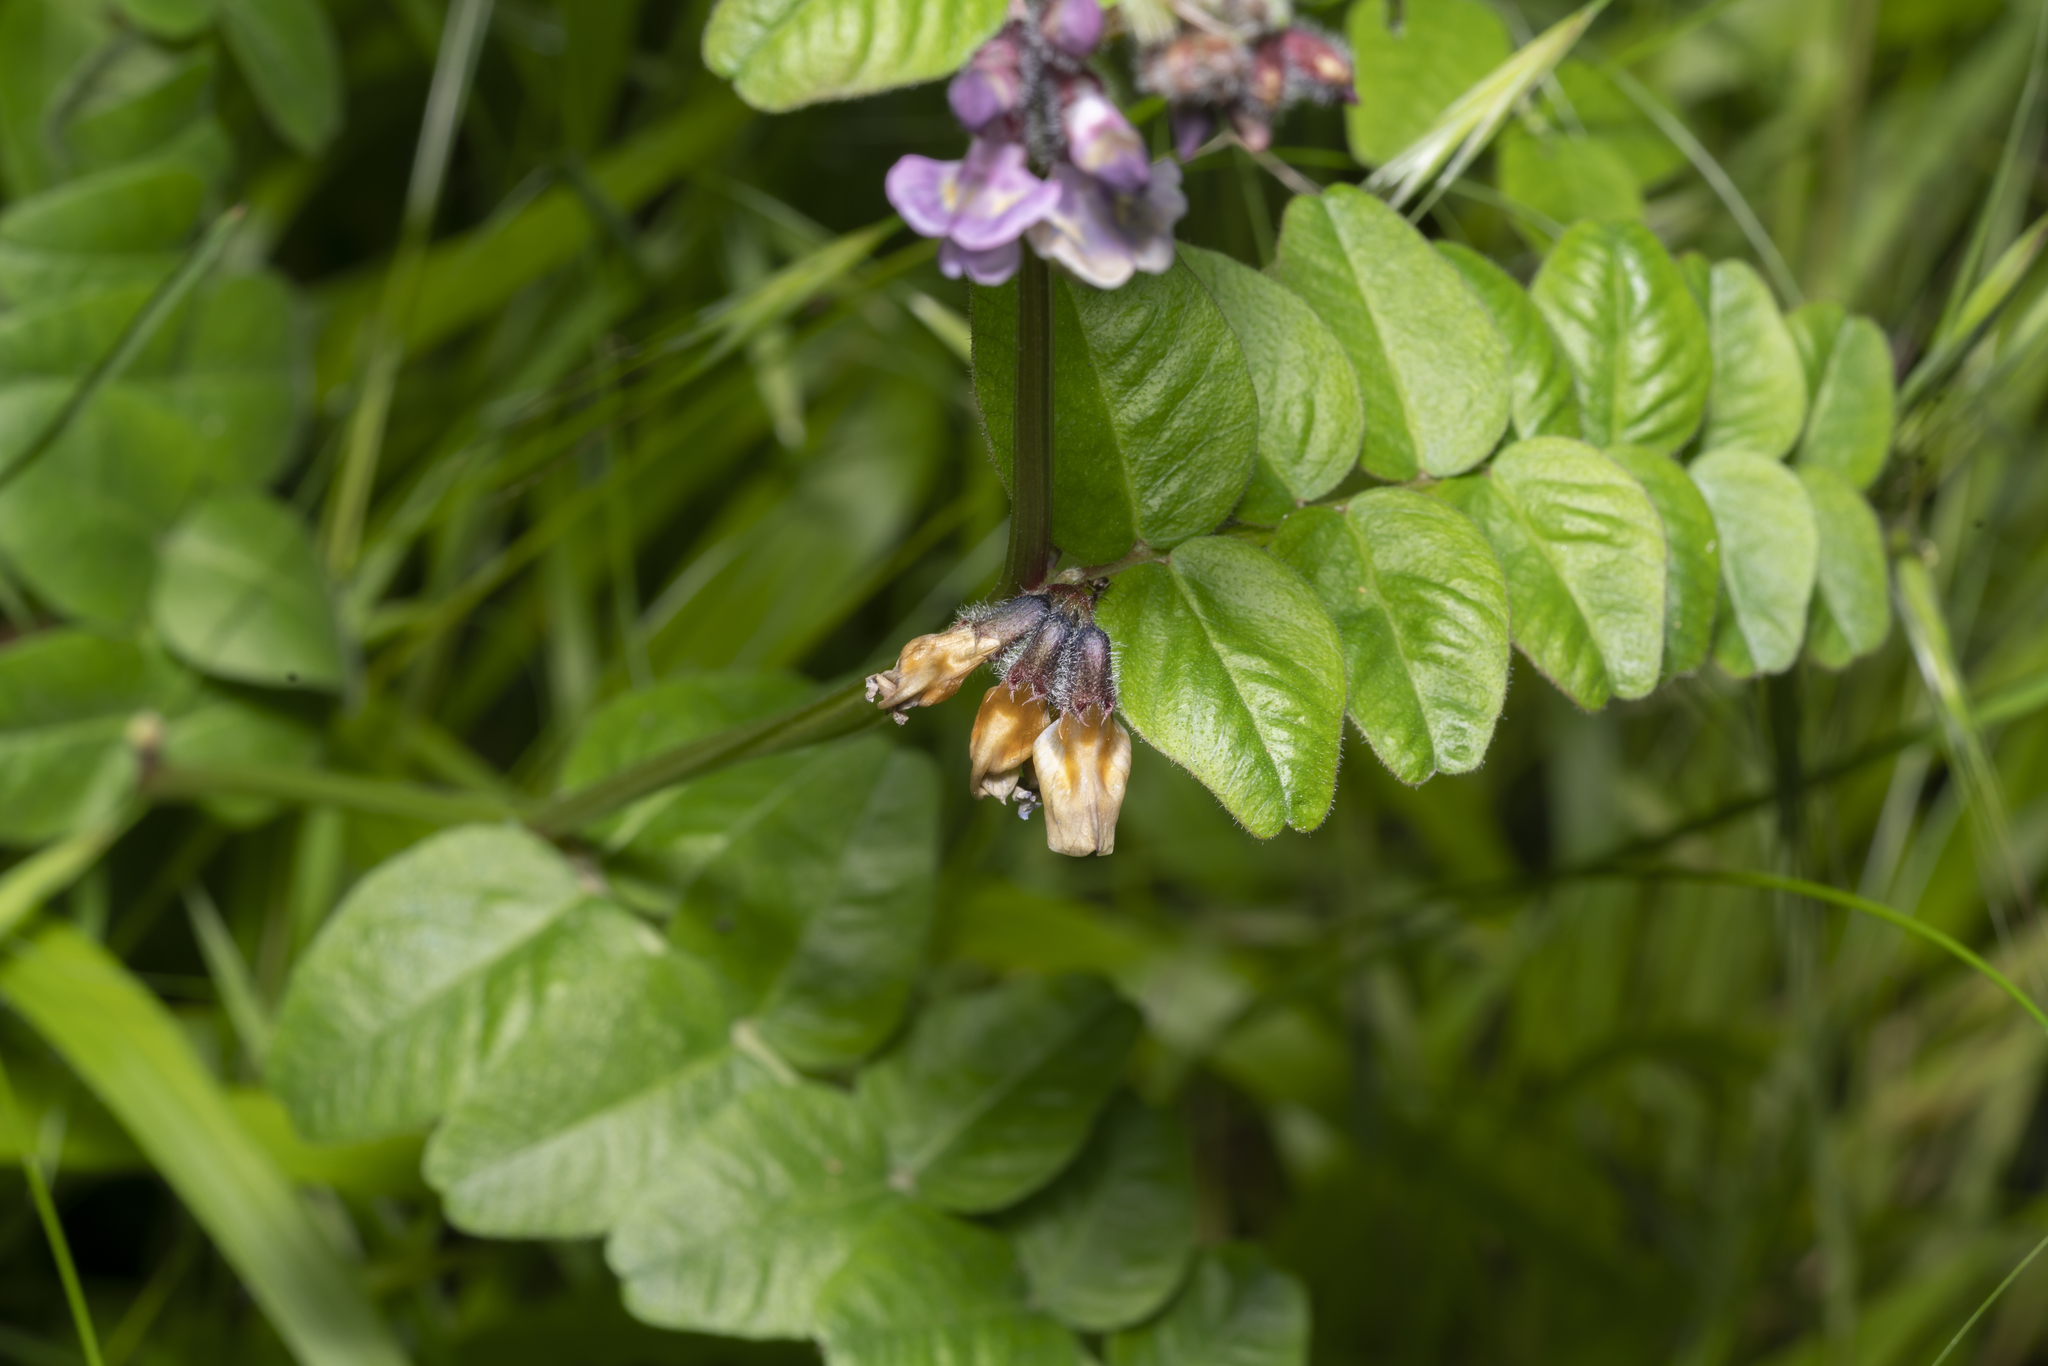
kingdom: Plantae
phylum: Tracheophyta
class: Magnoliopsida
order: Fabales
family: Fabaceae
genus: Vicia
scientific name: Vicia sepium
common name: Bush vetch
